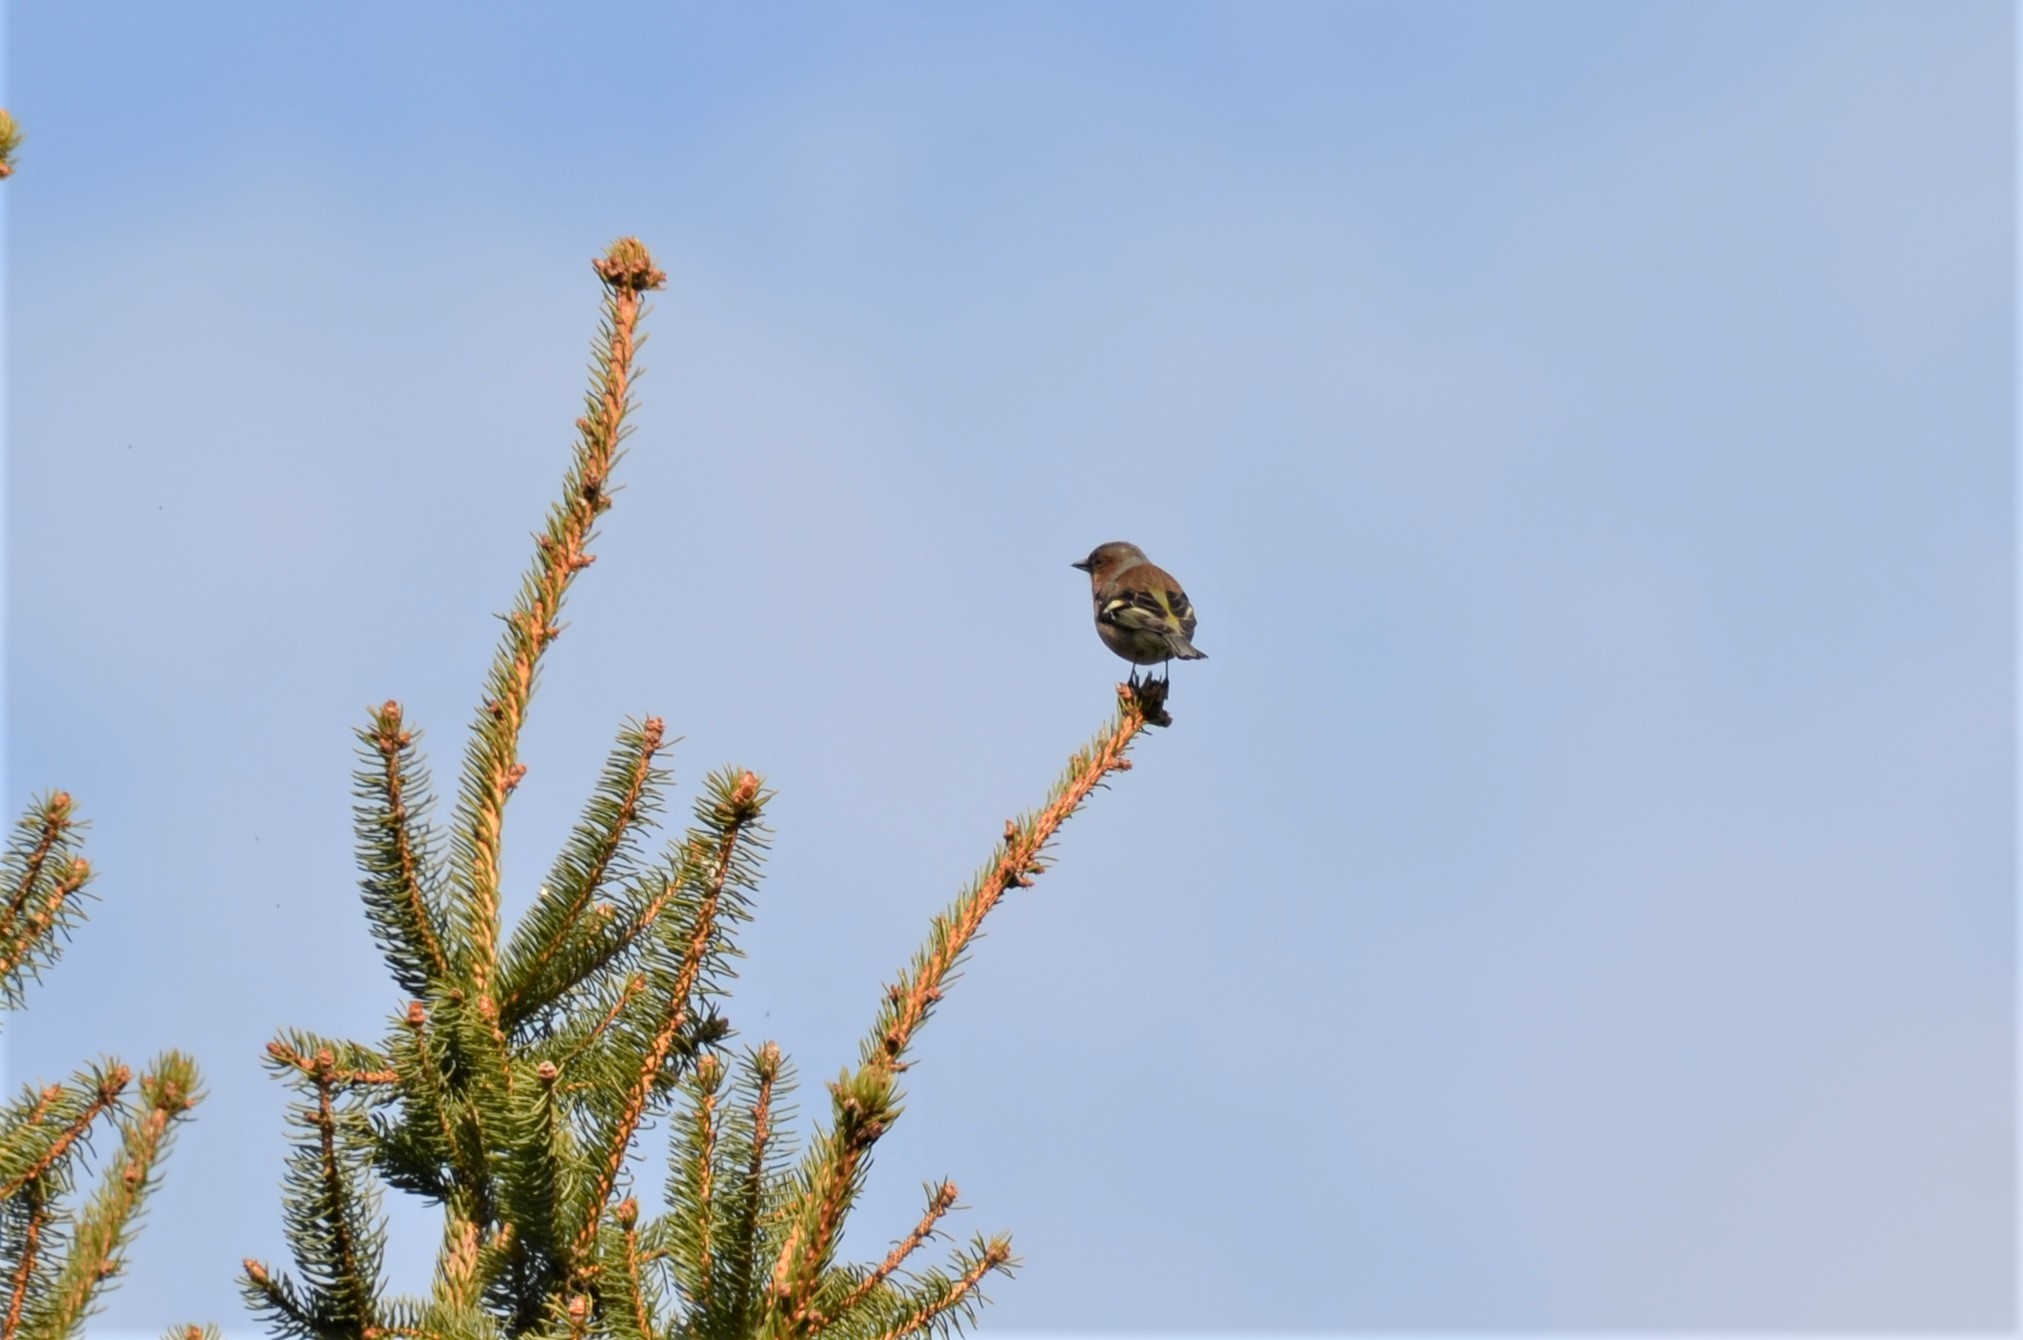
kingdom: Animalia
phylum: Chordata
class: Aves
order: Passeriformes
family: Fringillidae
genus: Fringilla
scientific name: Fringilla coelebs
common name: Common chaffinch
